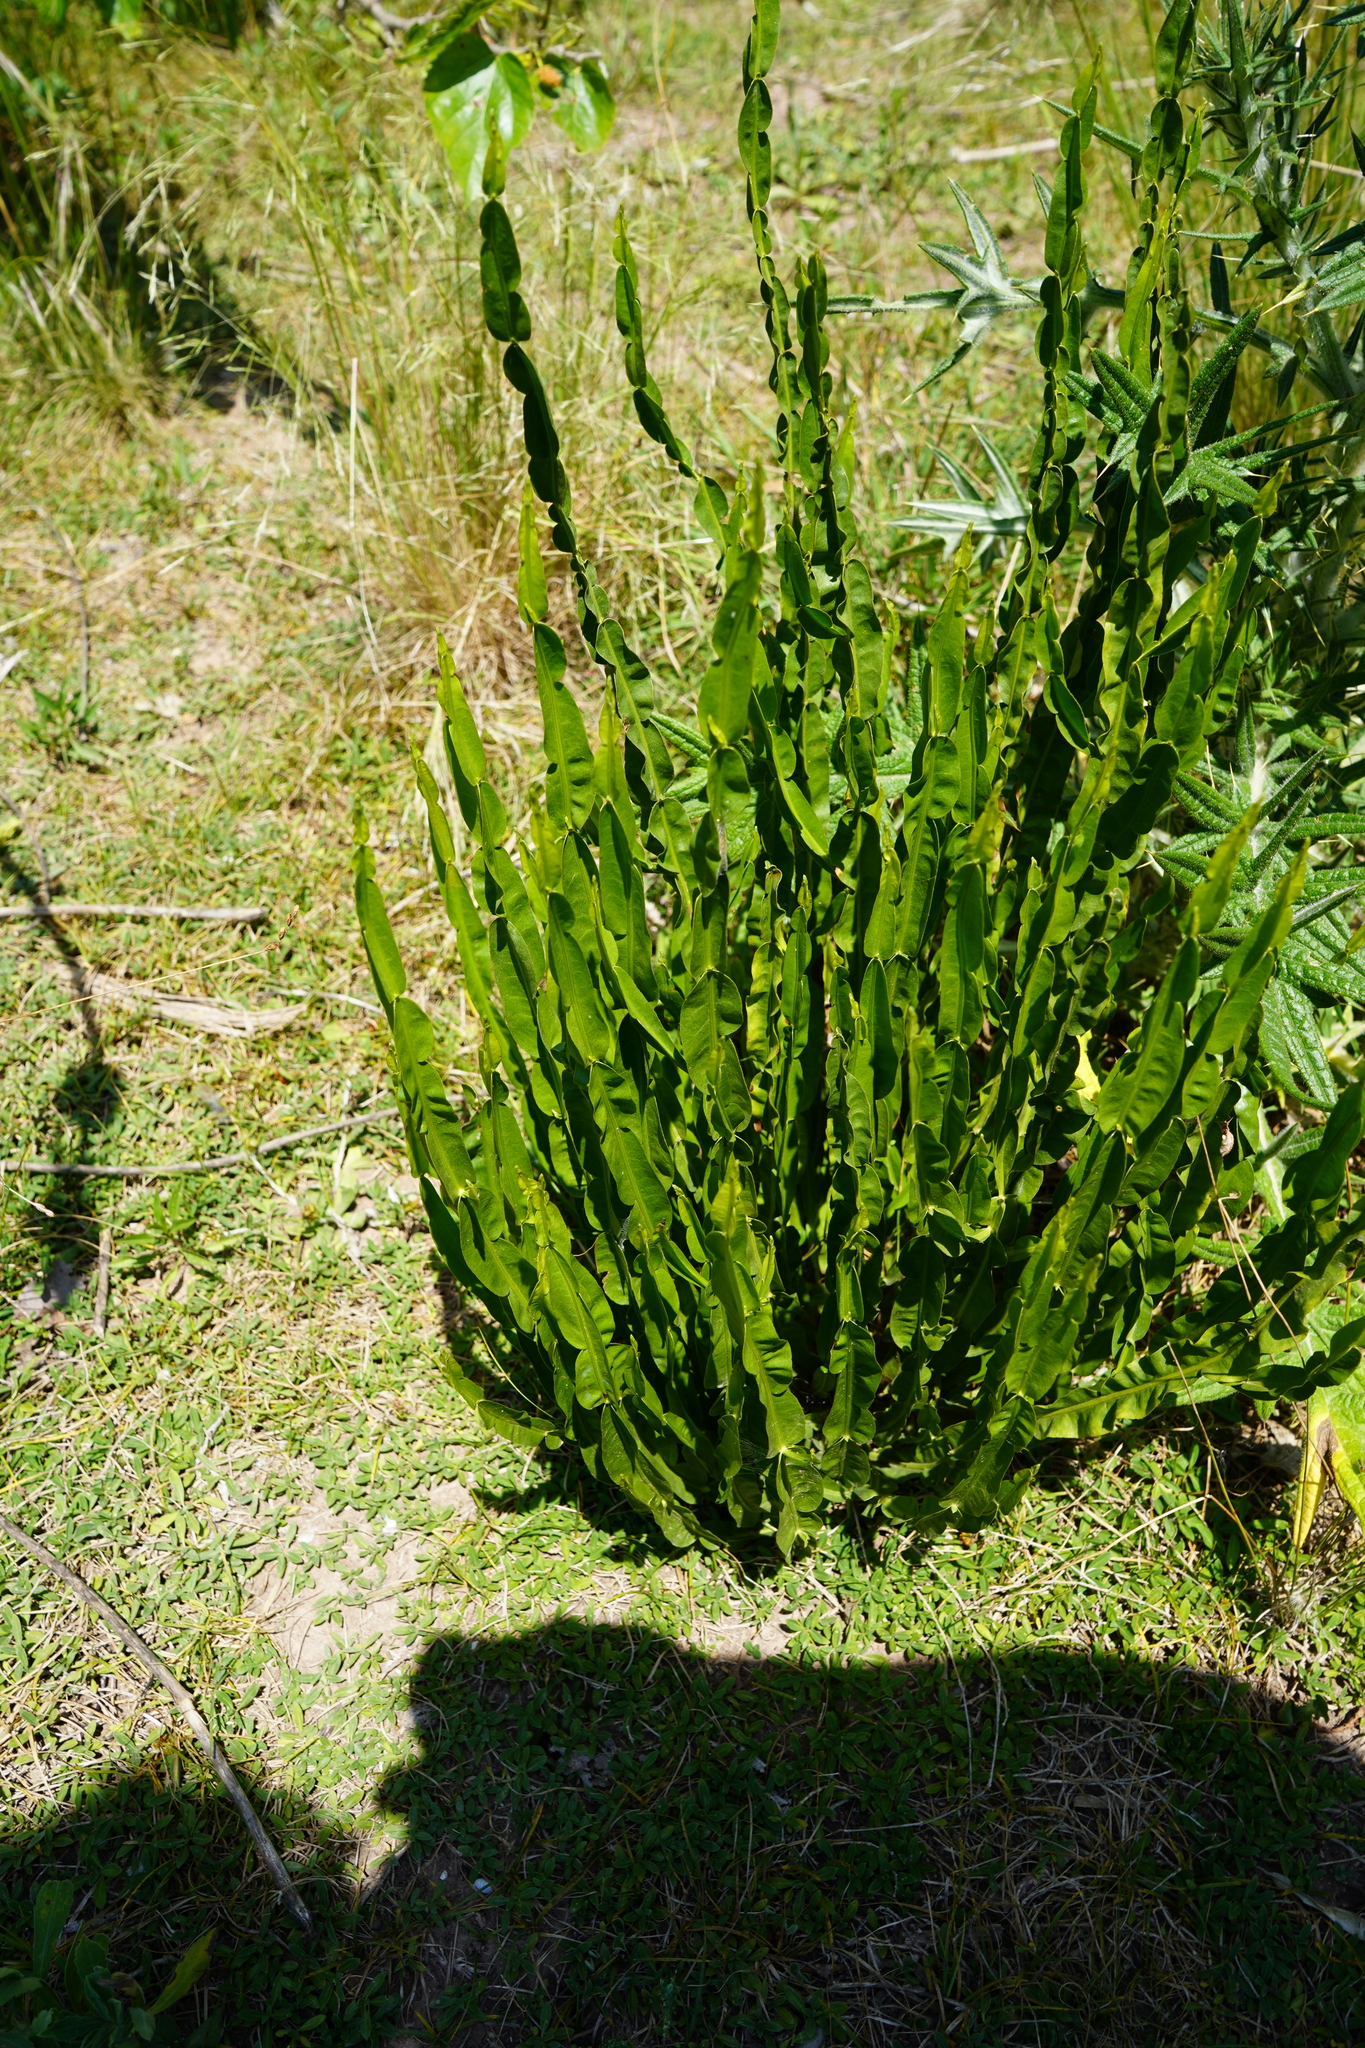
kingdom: Plantae
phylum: Tracheophyta
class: Magnoliopsida
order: Asterales
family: Asteraceae
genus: Baccharis
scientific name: Baccharis trimera
